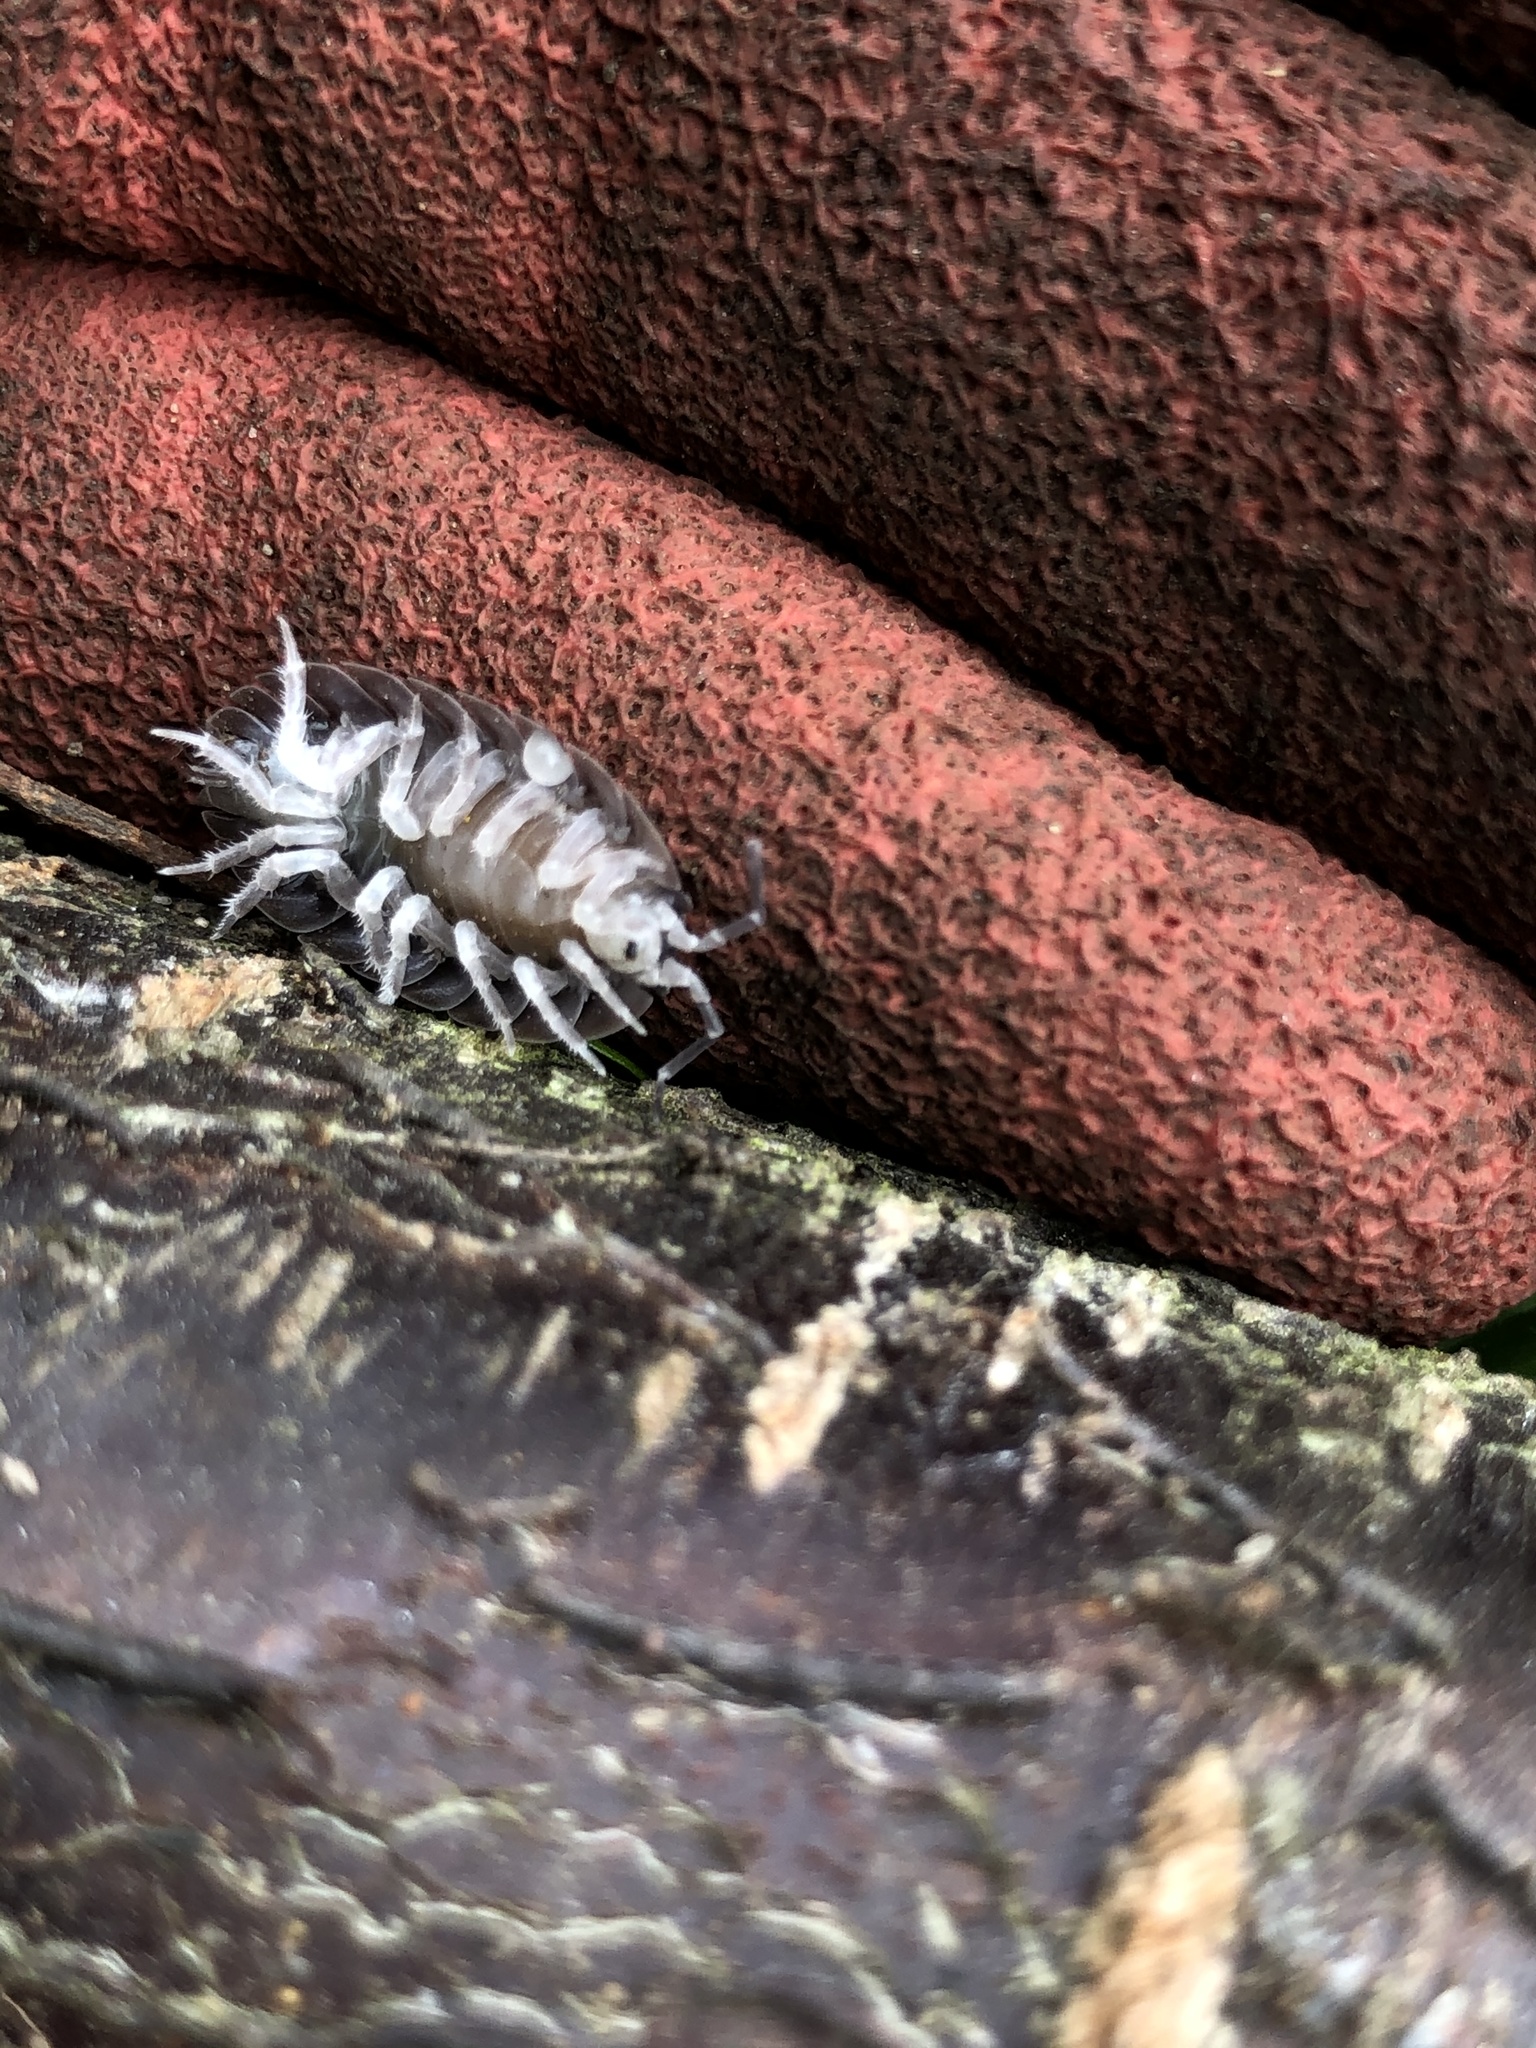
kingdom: Animalia
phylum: Arthropoda
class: Malacostraca
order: Isopoda
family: Porcellionidae
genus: Porcellio
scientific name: Porcellio dilatatus
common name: Isopod
